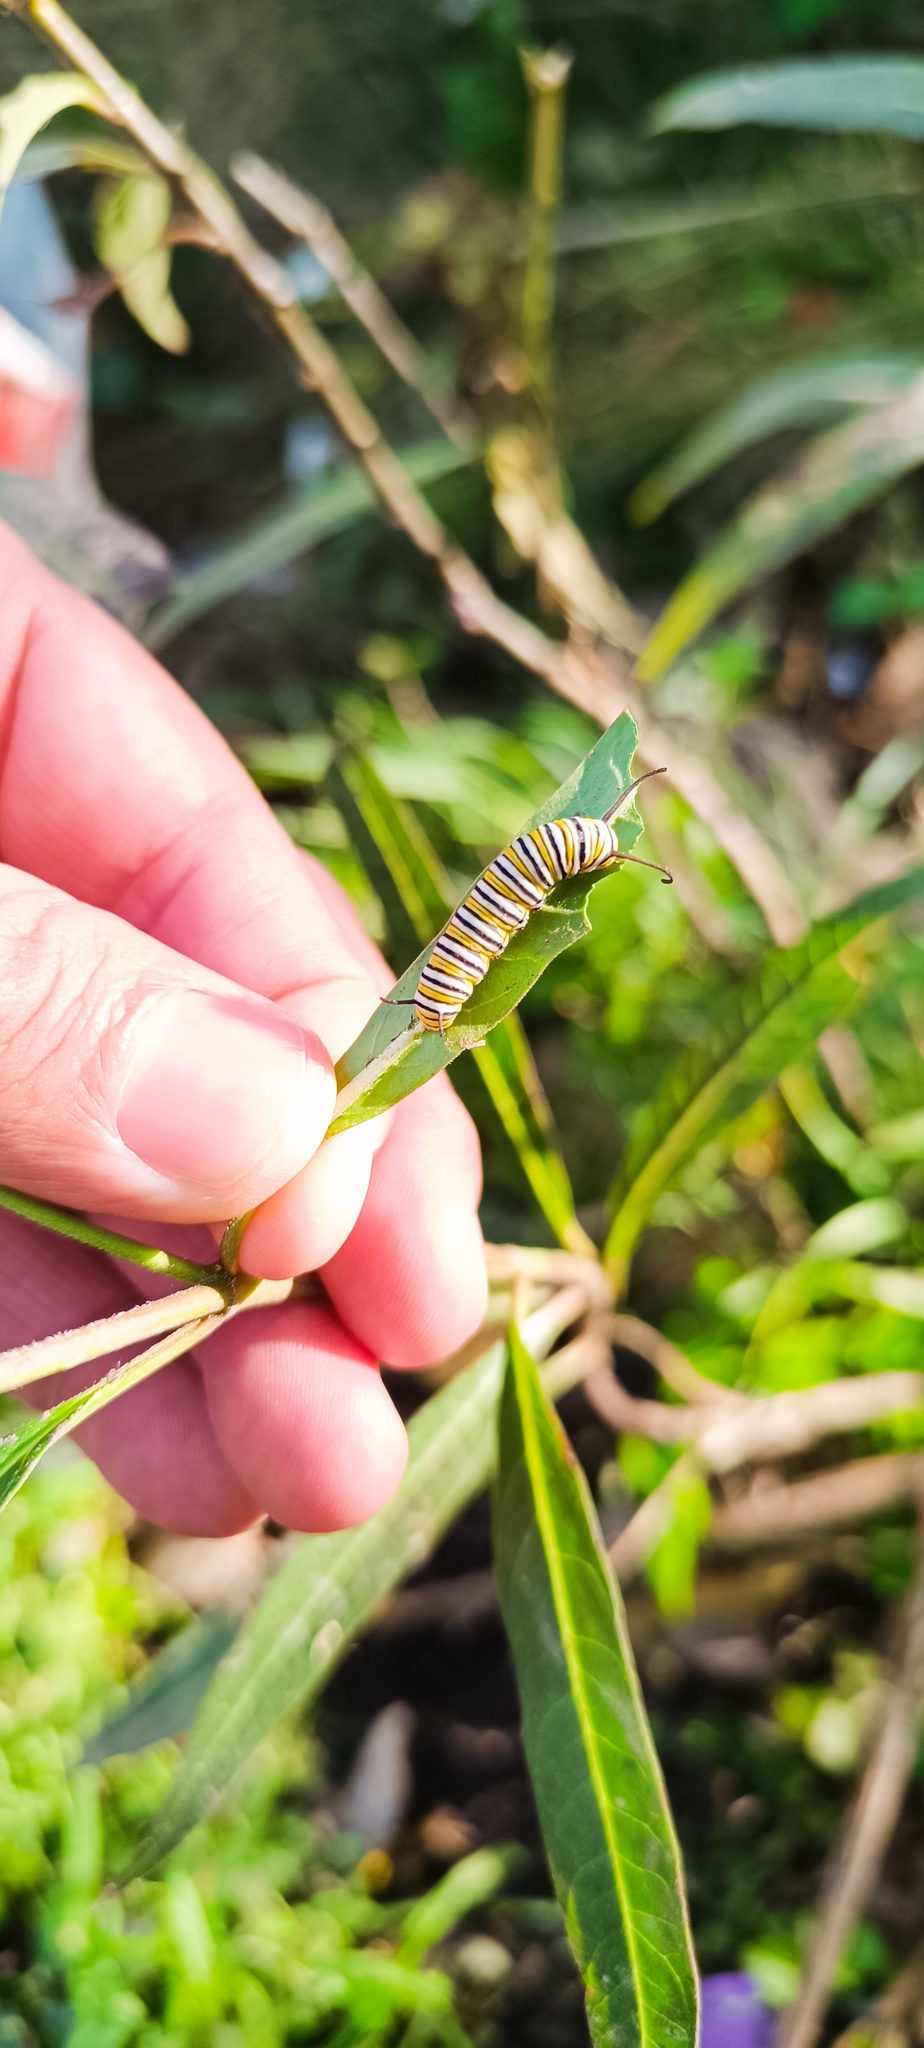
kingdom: Animalia
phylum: Arthropoda
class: Insecta
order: Lepidoptera
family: Nymphalidae
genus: Danaus
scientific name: Danaus plexippus
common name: Monarch
